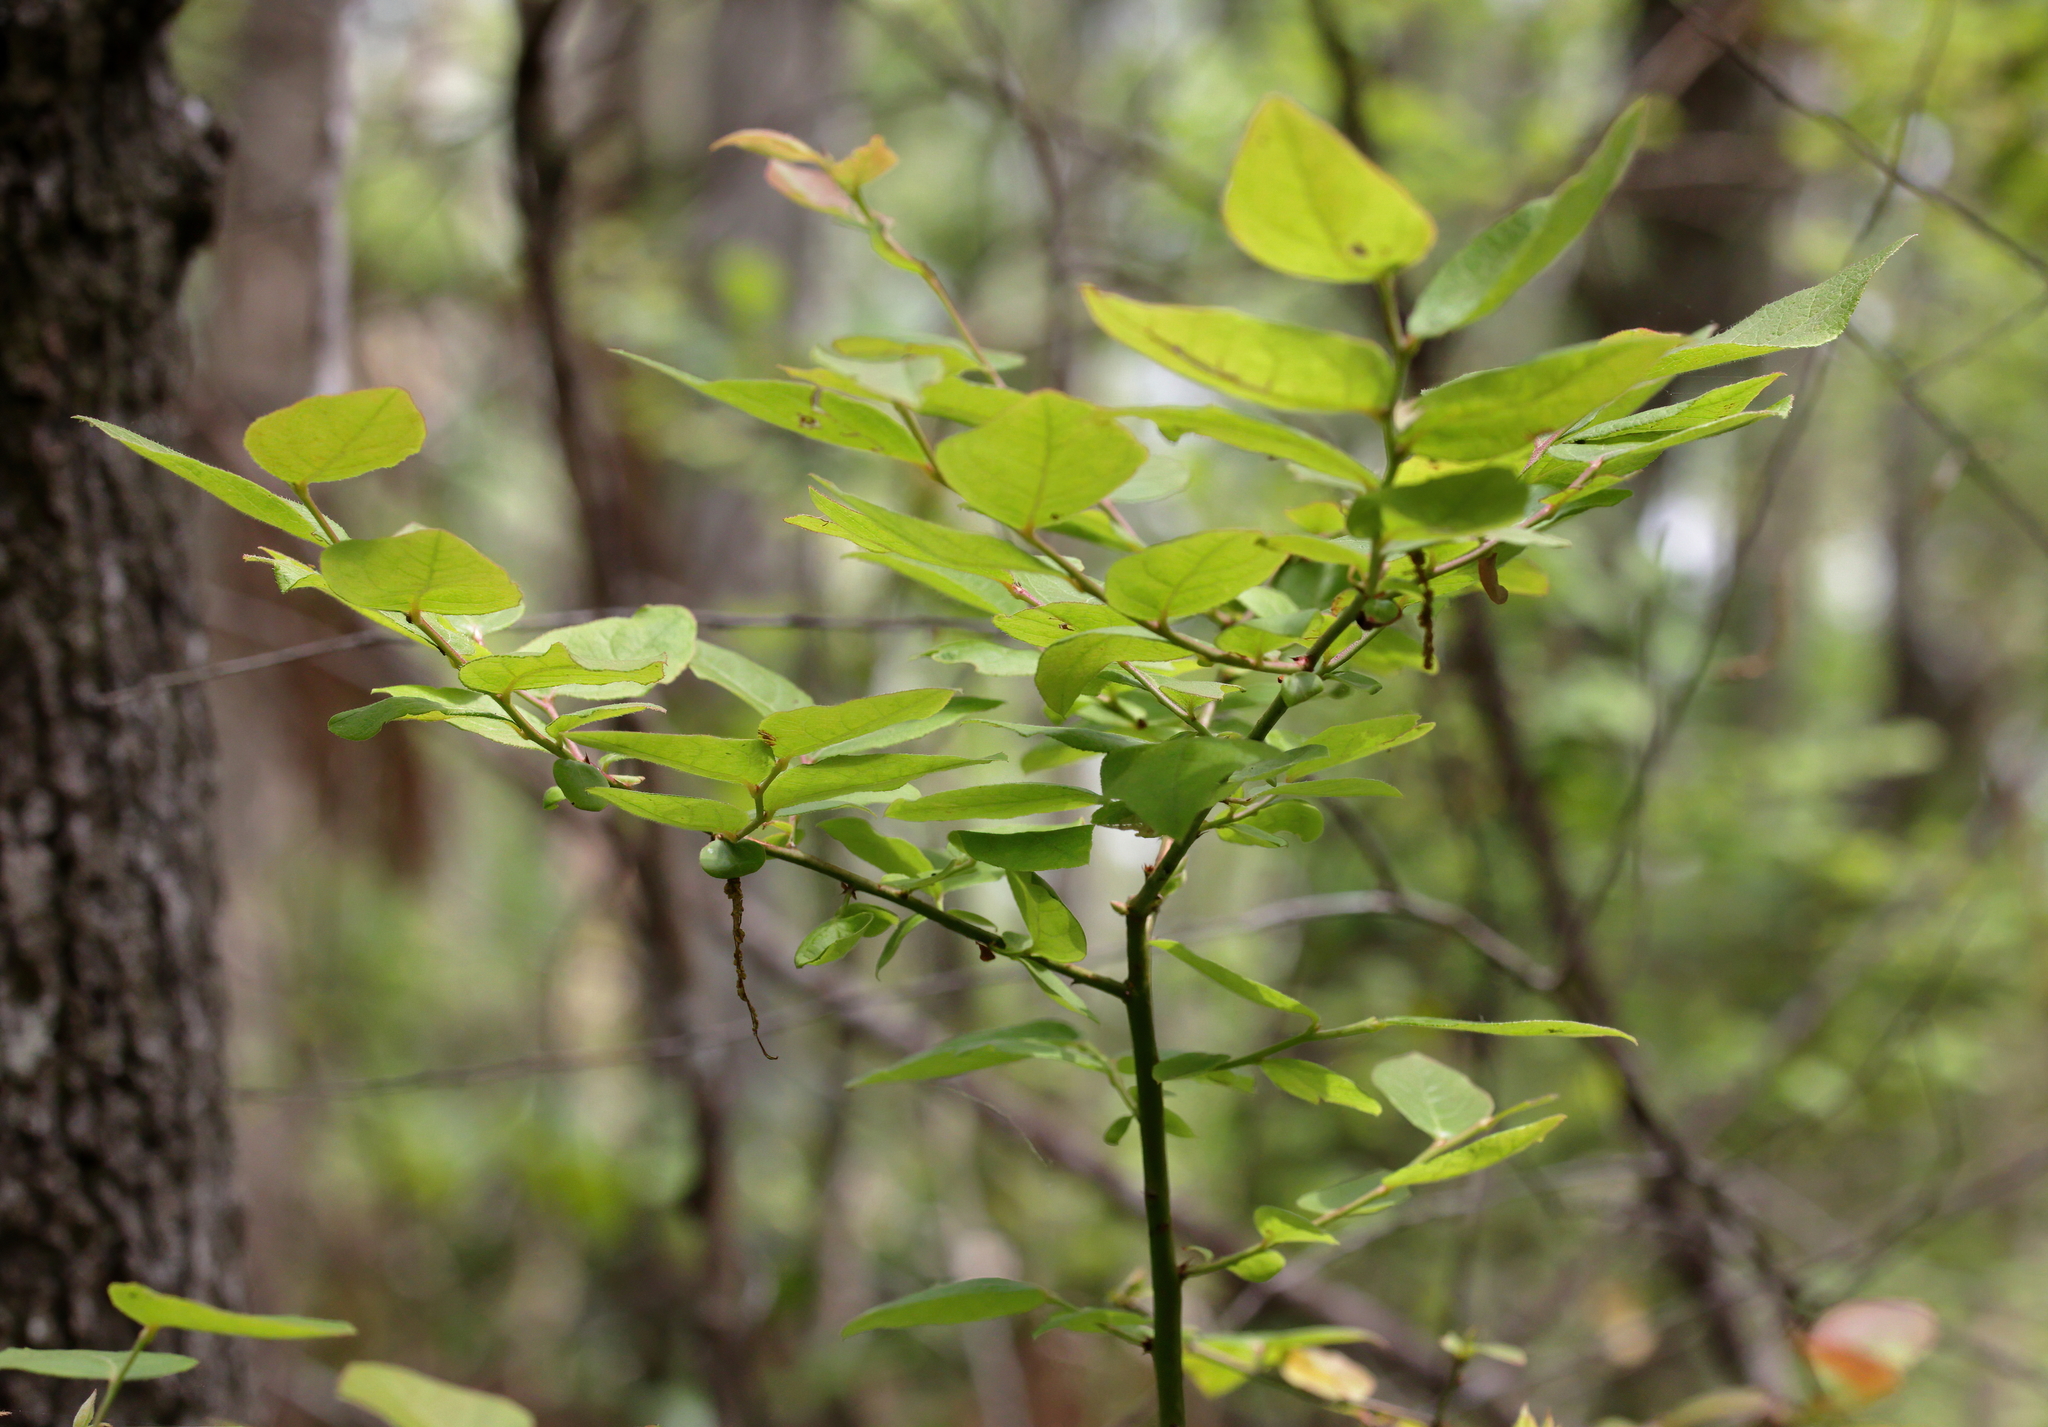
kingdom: Plantae
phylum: Tracheophyta
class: Magnoliopsida
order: Ericales
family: Ericaceae
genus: Vaccinium
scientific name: Vaccinium stamineum
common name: Deerberry
